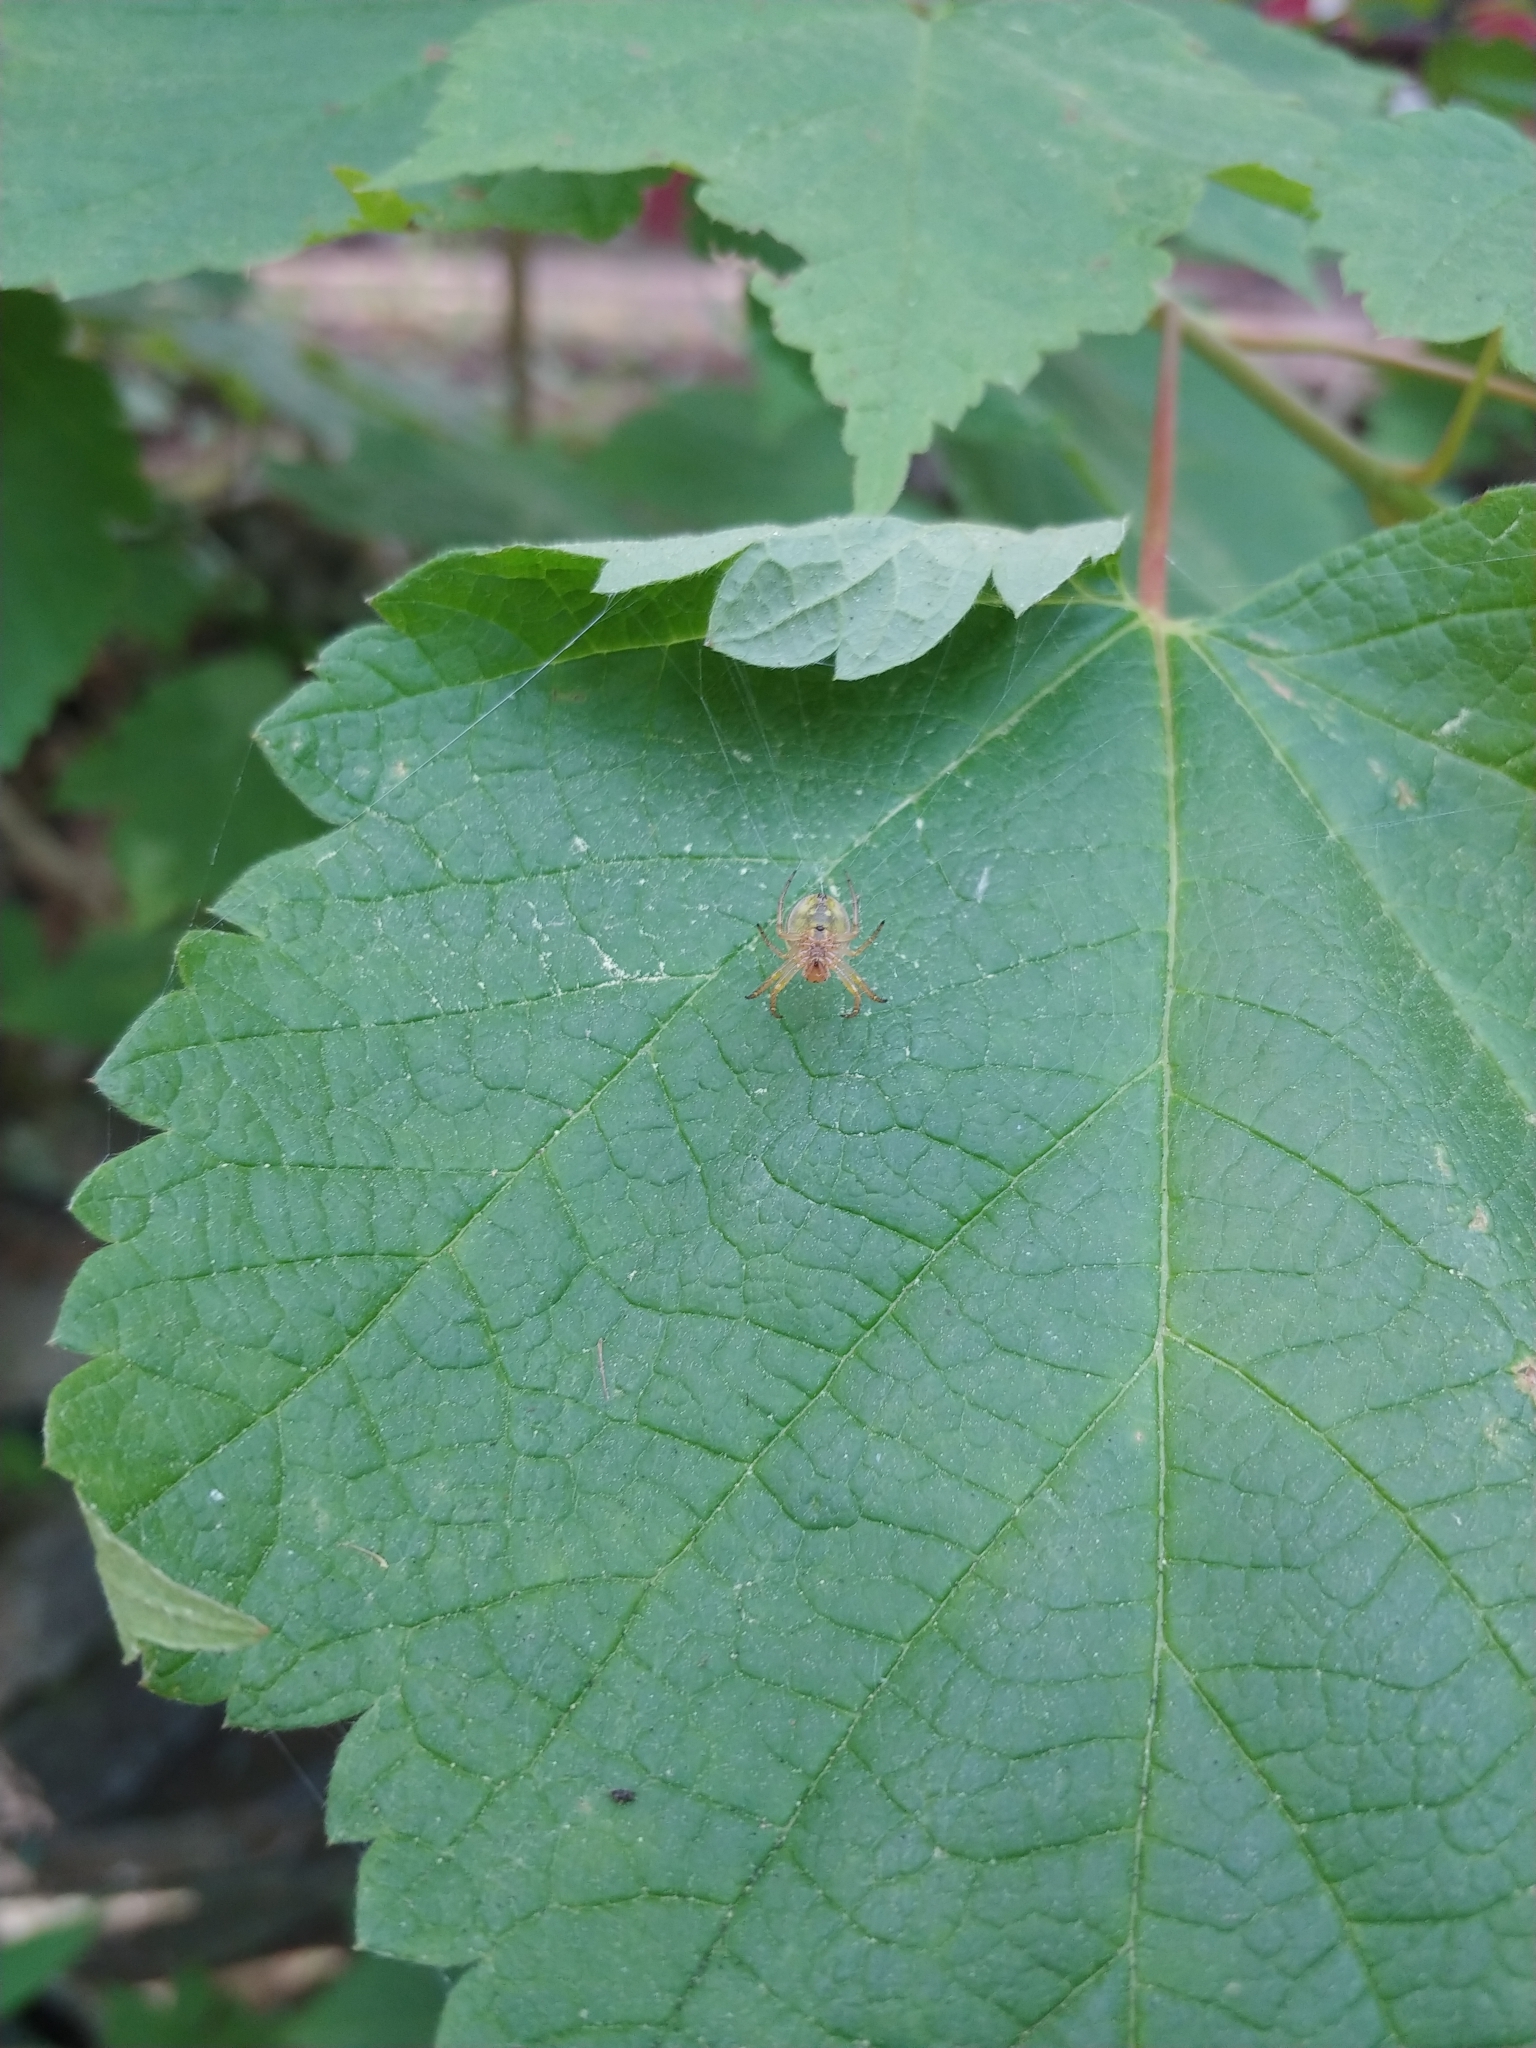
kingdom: Animalia
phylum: Arthropoda
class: Arachnida
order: Araneae
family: Araneidae
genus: Araniella
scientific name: Araniella displicata
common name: Sixspotted orb weaver
